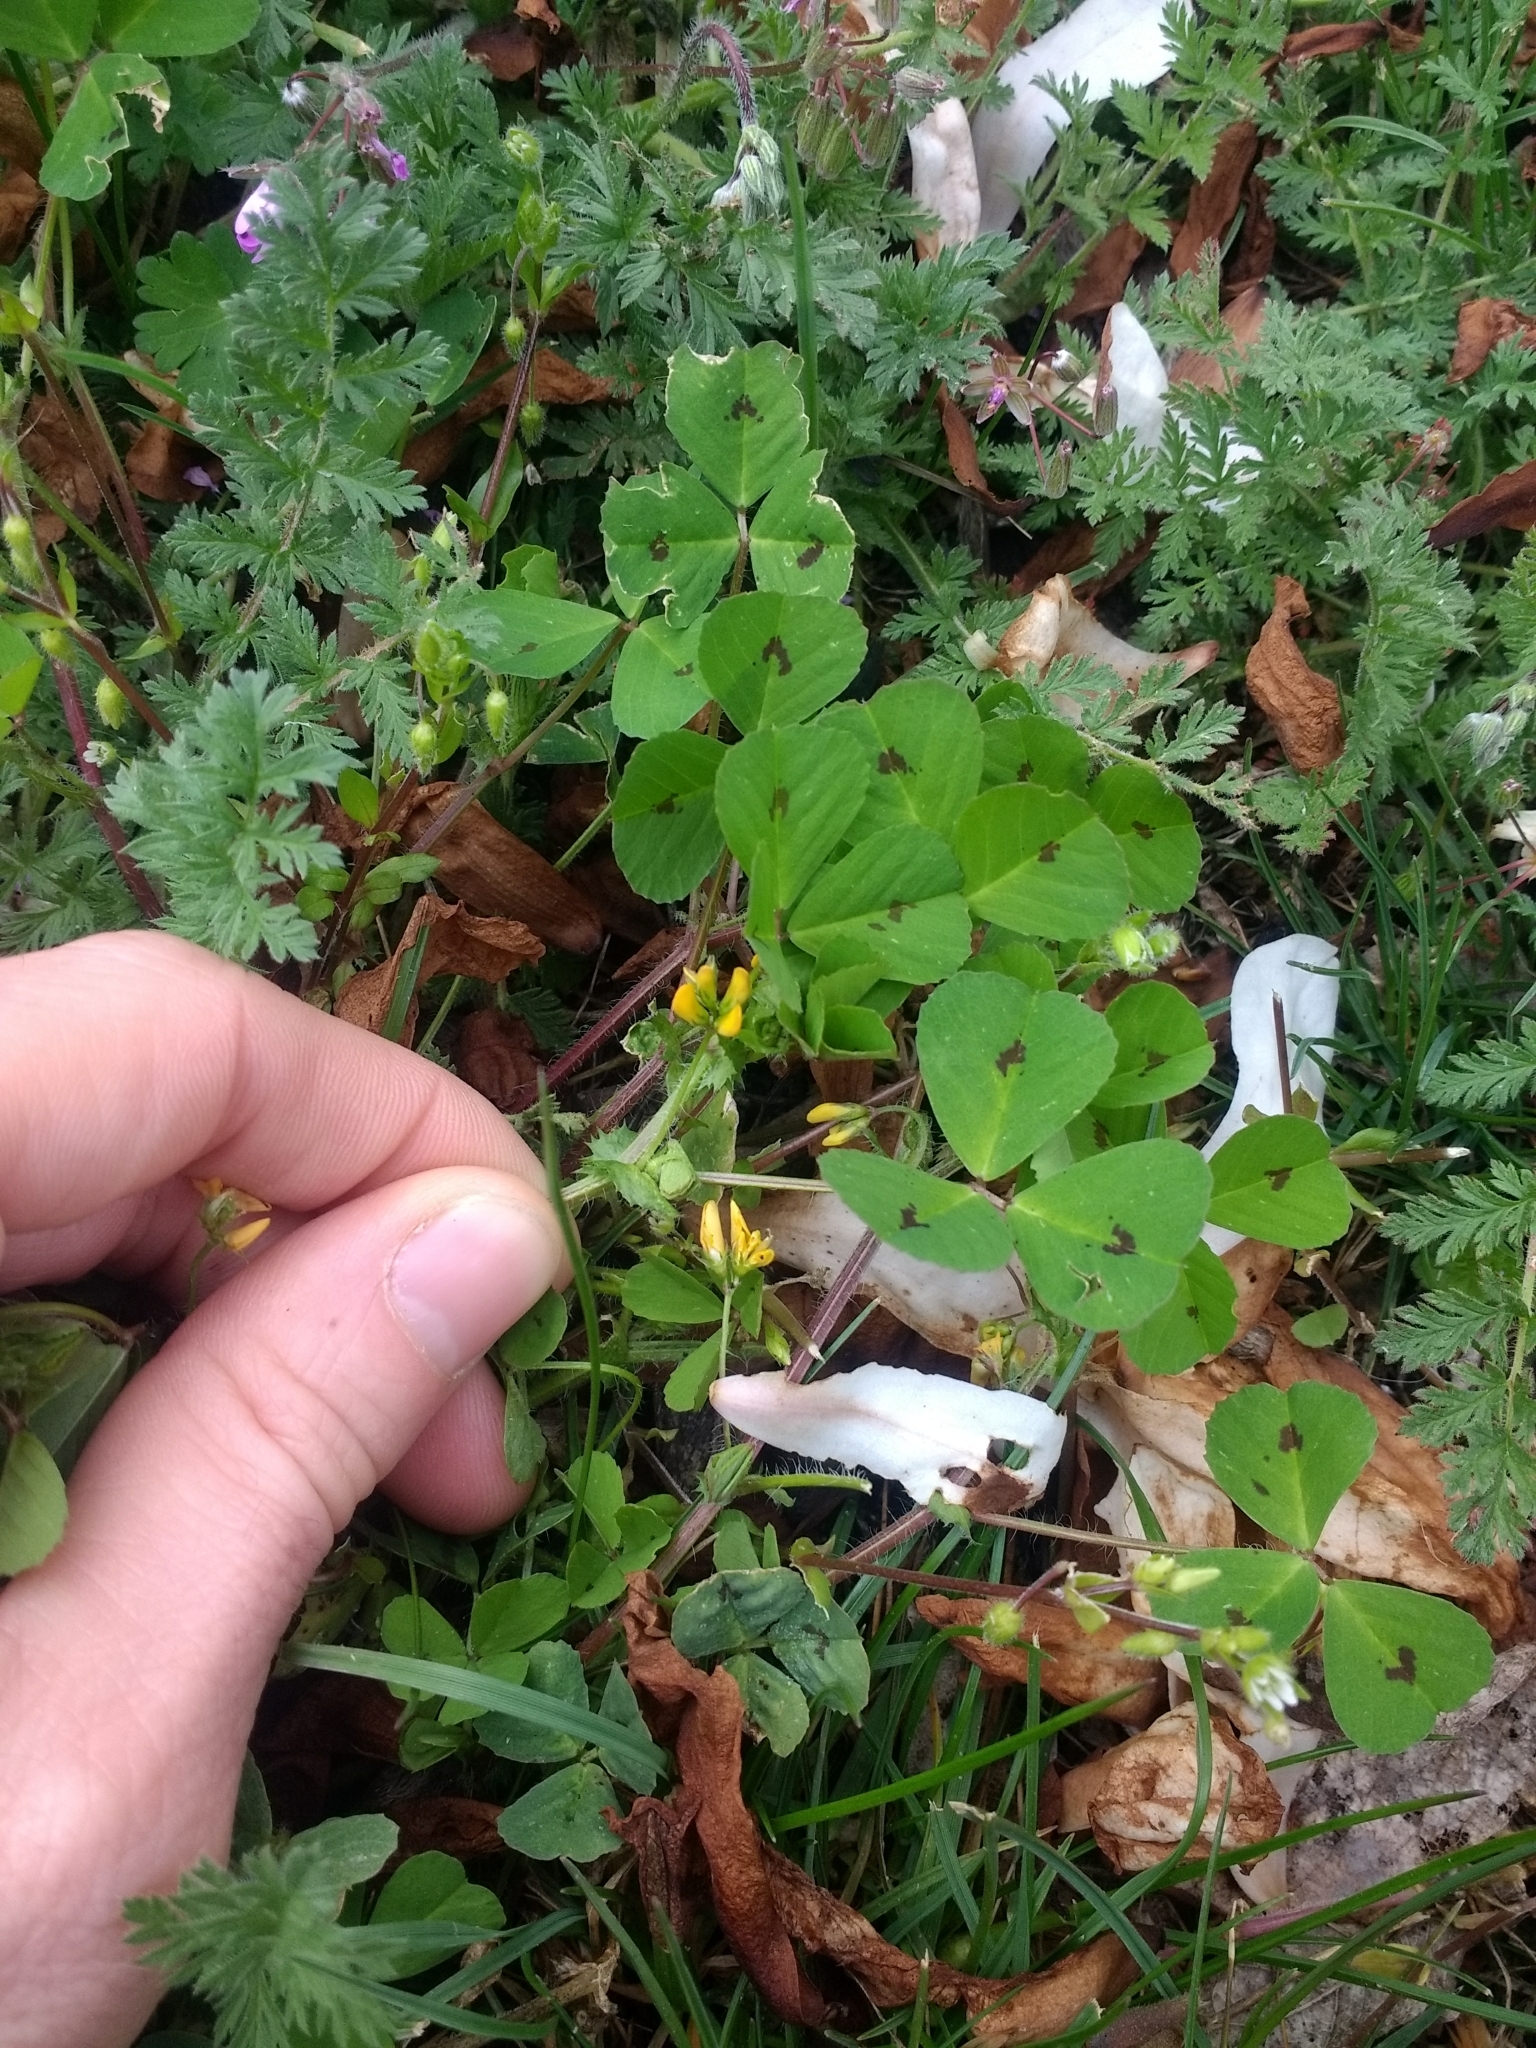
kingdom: Plantae
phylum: Tracheophyta
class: Magnoliopsida
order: Fabales
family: Fabaceae
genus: Medicago
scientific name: Medicago arabica
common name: Spotted medick
